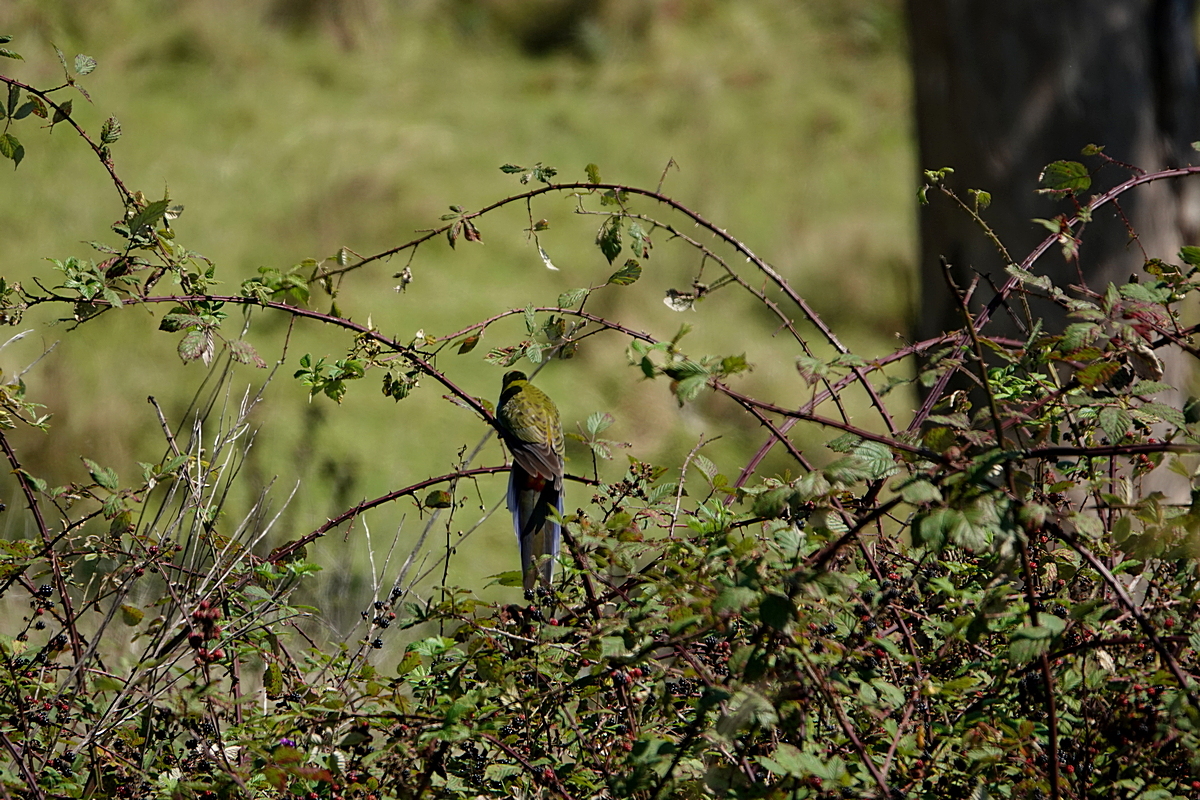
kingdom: Animalia
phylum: Chordata
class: Aves
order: Psittaciformes
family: Psittacidae
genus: Platycercus
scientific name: Platycercus elegans
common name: Crimson rosella
